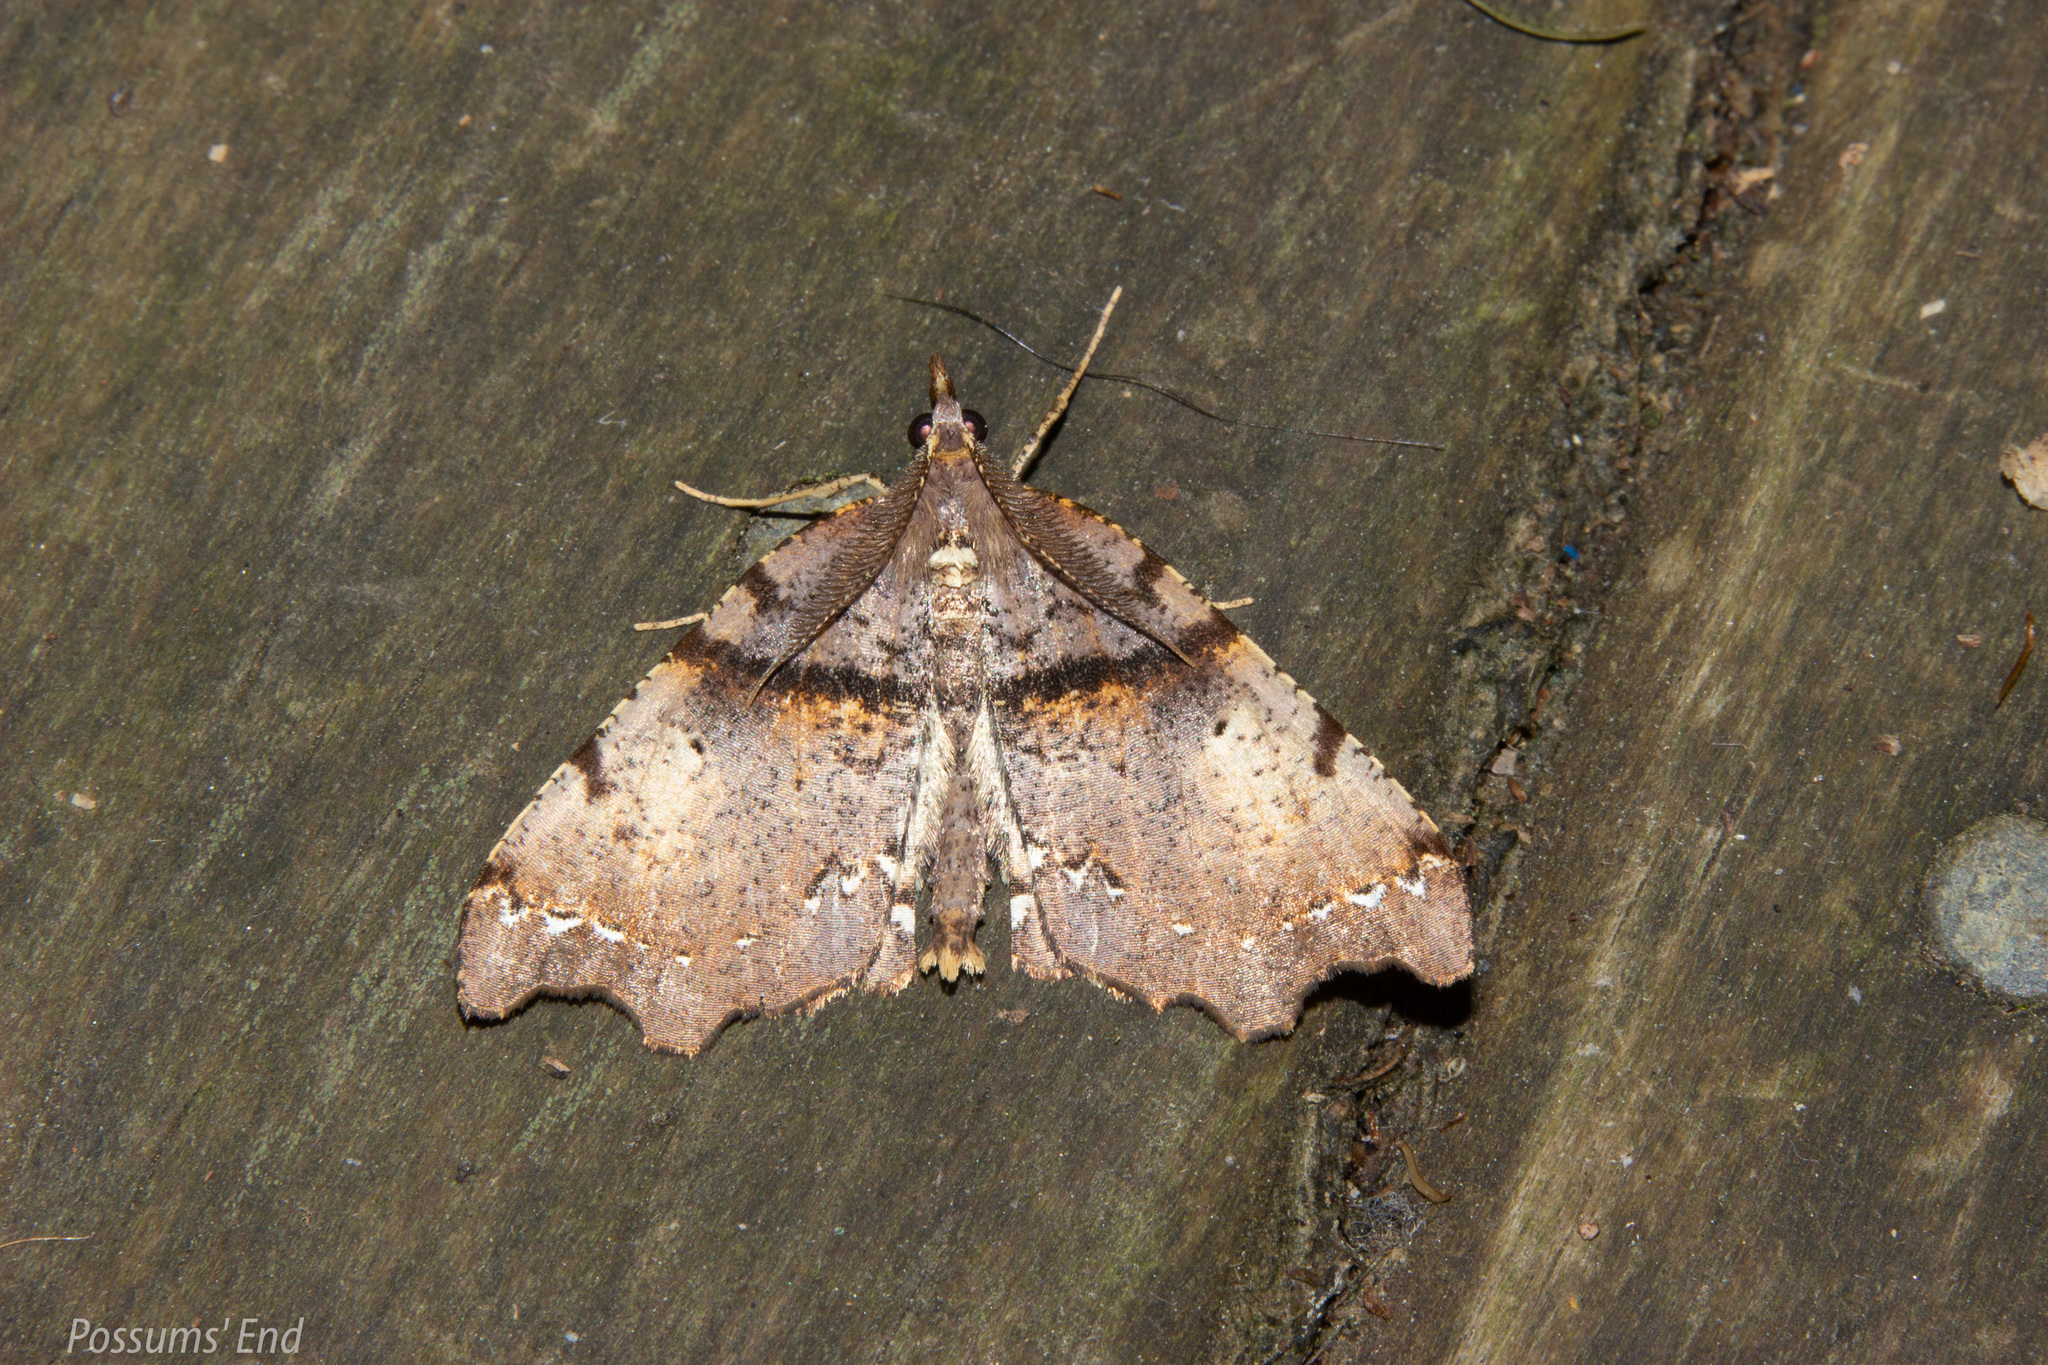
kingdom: Animalia
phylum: Arthropoda
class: Insecta
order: Lepidoptera
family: Geometridae
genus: Chalastra
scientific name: Chalastra pellurgata
